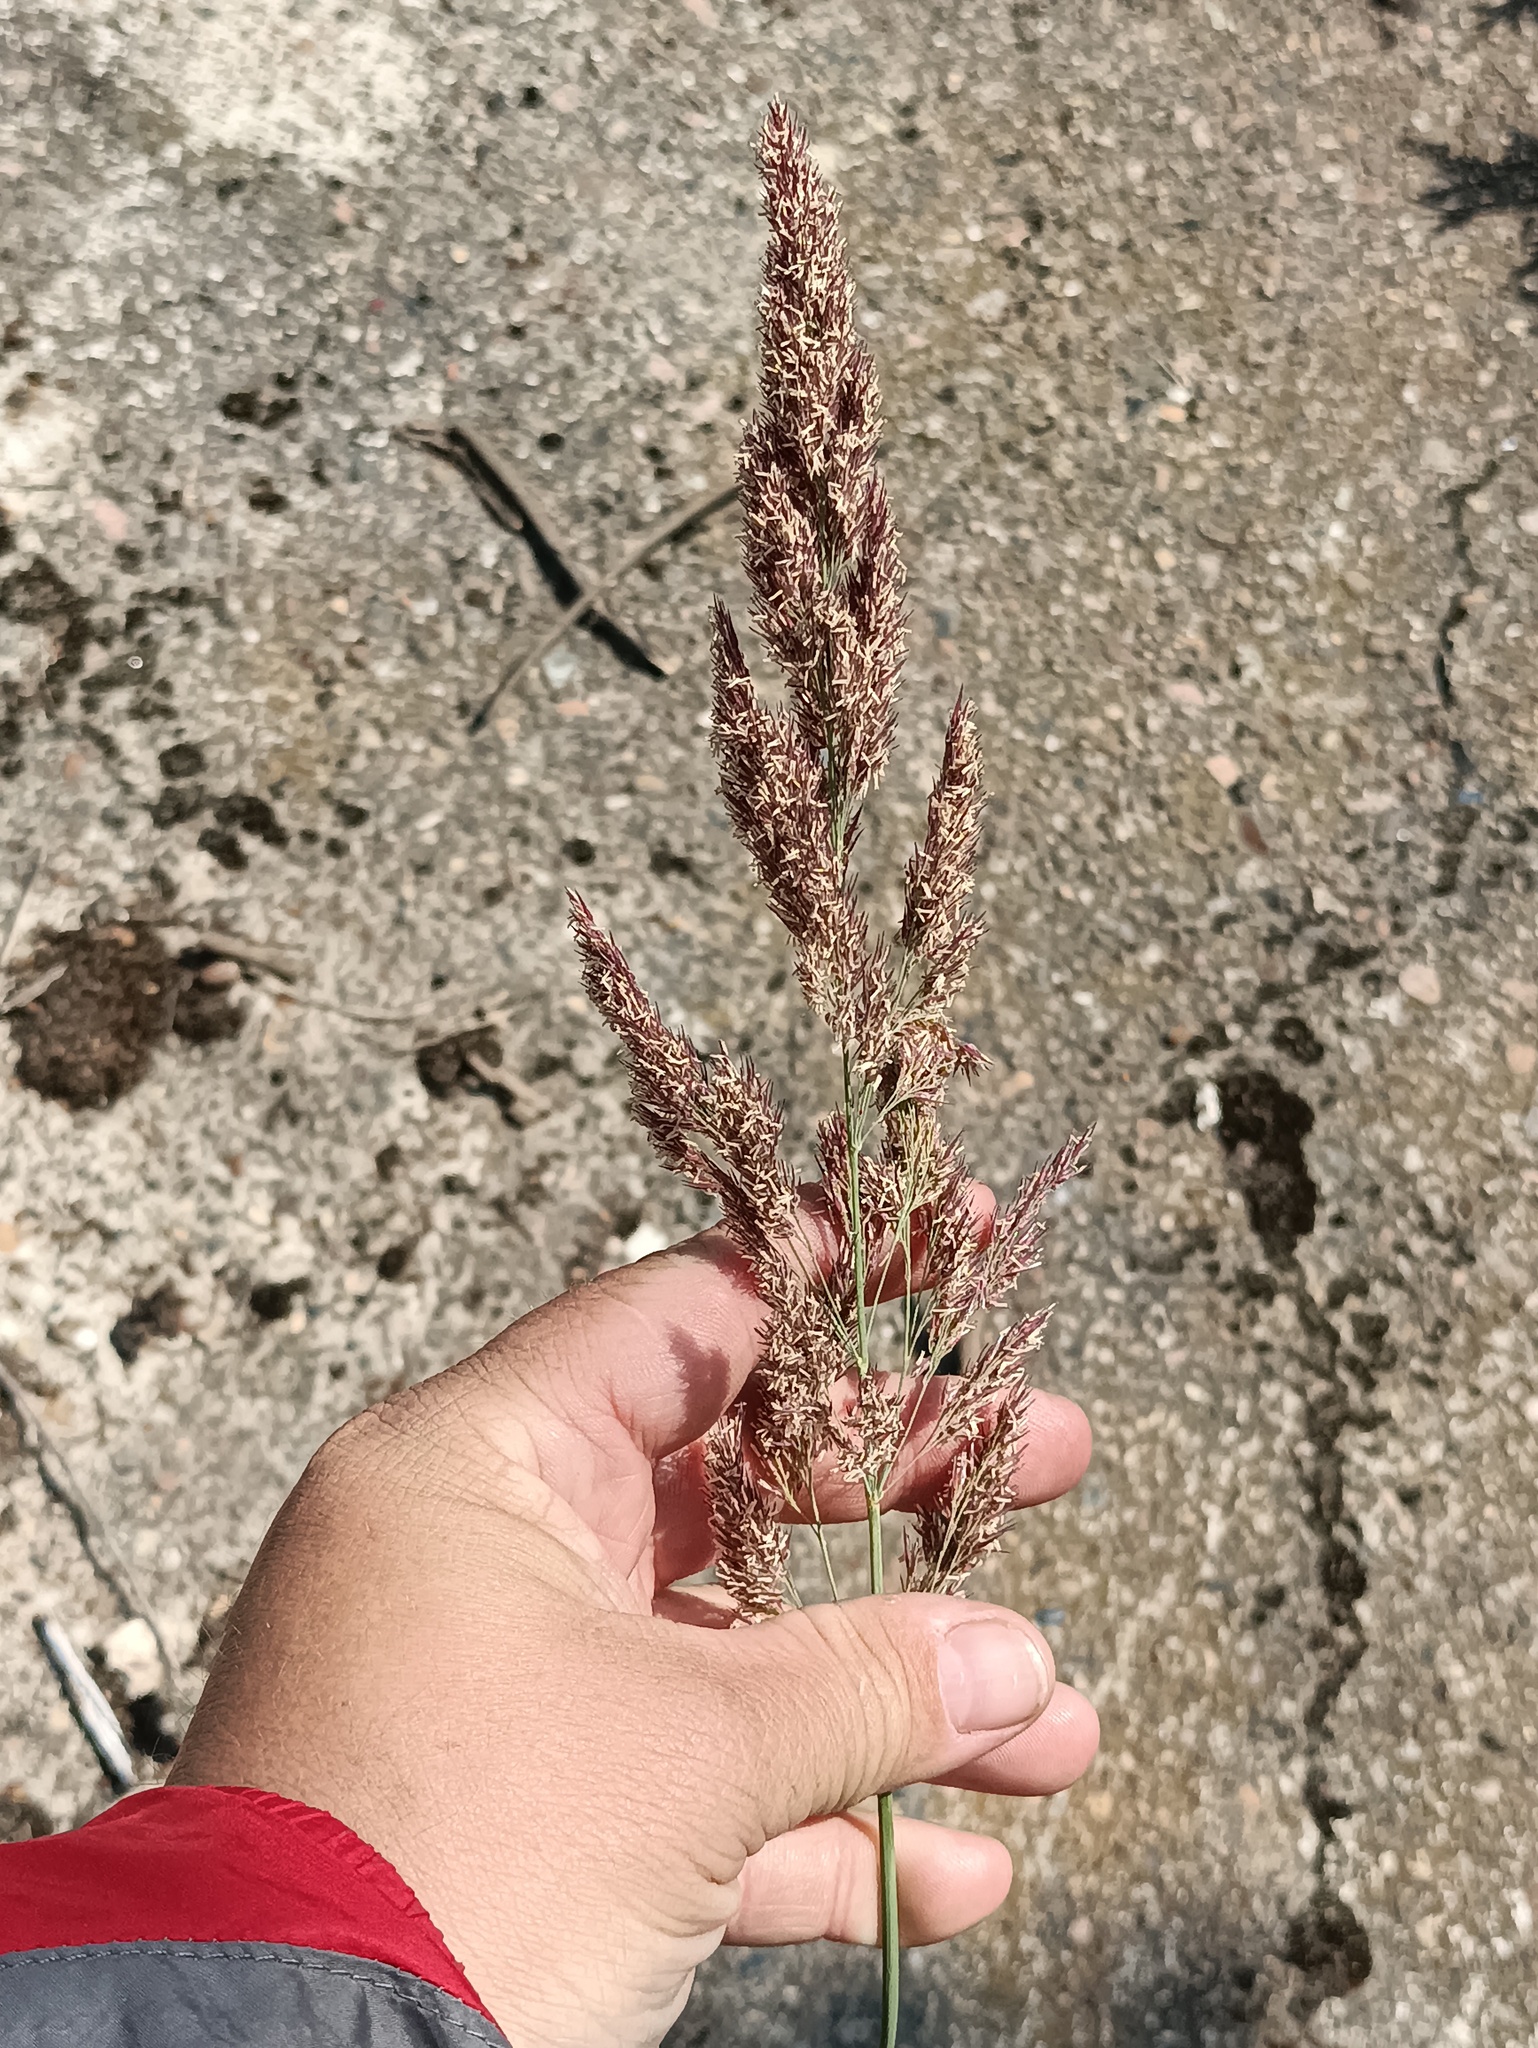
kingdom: Plantae
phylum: Tracheophyta
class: Liliopsida
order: Poales
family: Poaceae
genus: Calamagrostis
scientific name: Calamagrostis epigejos
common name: Wood small-reed
